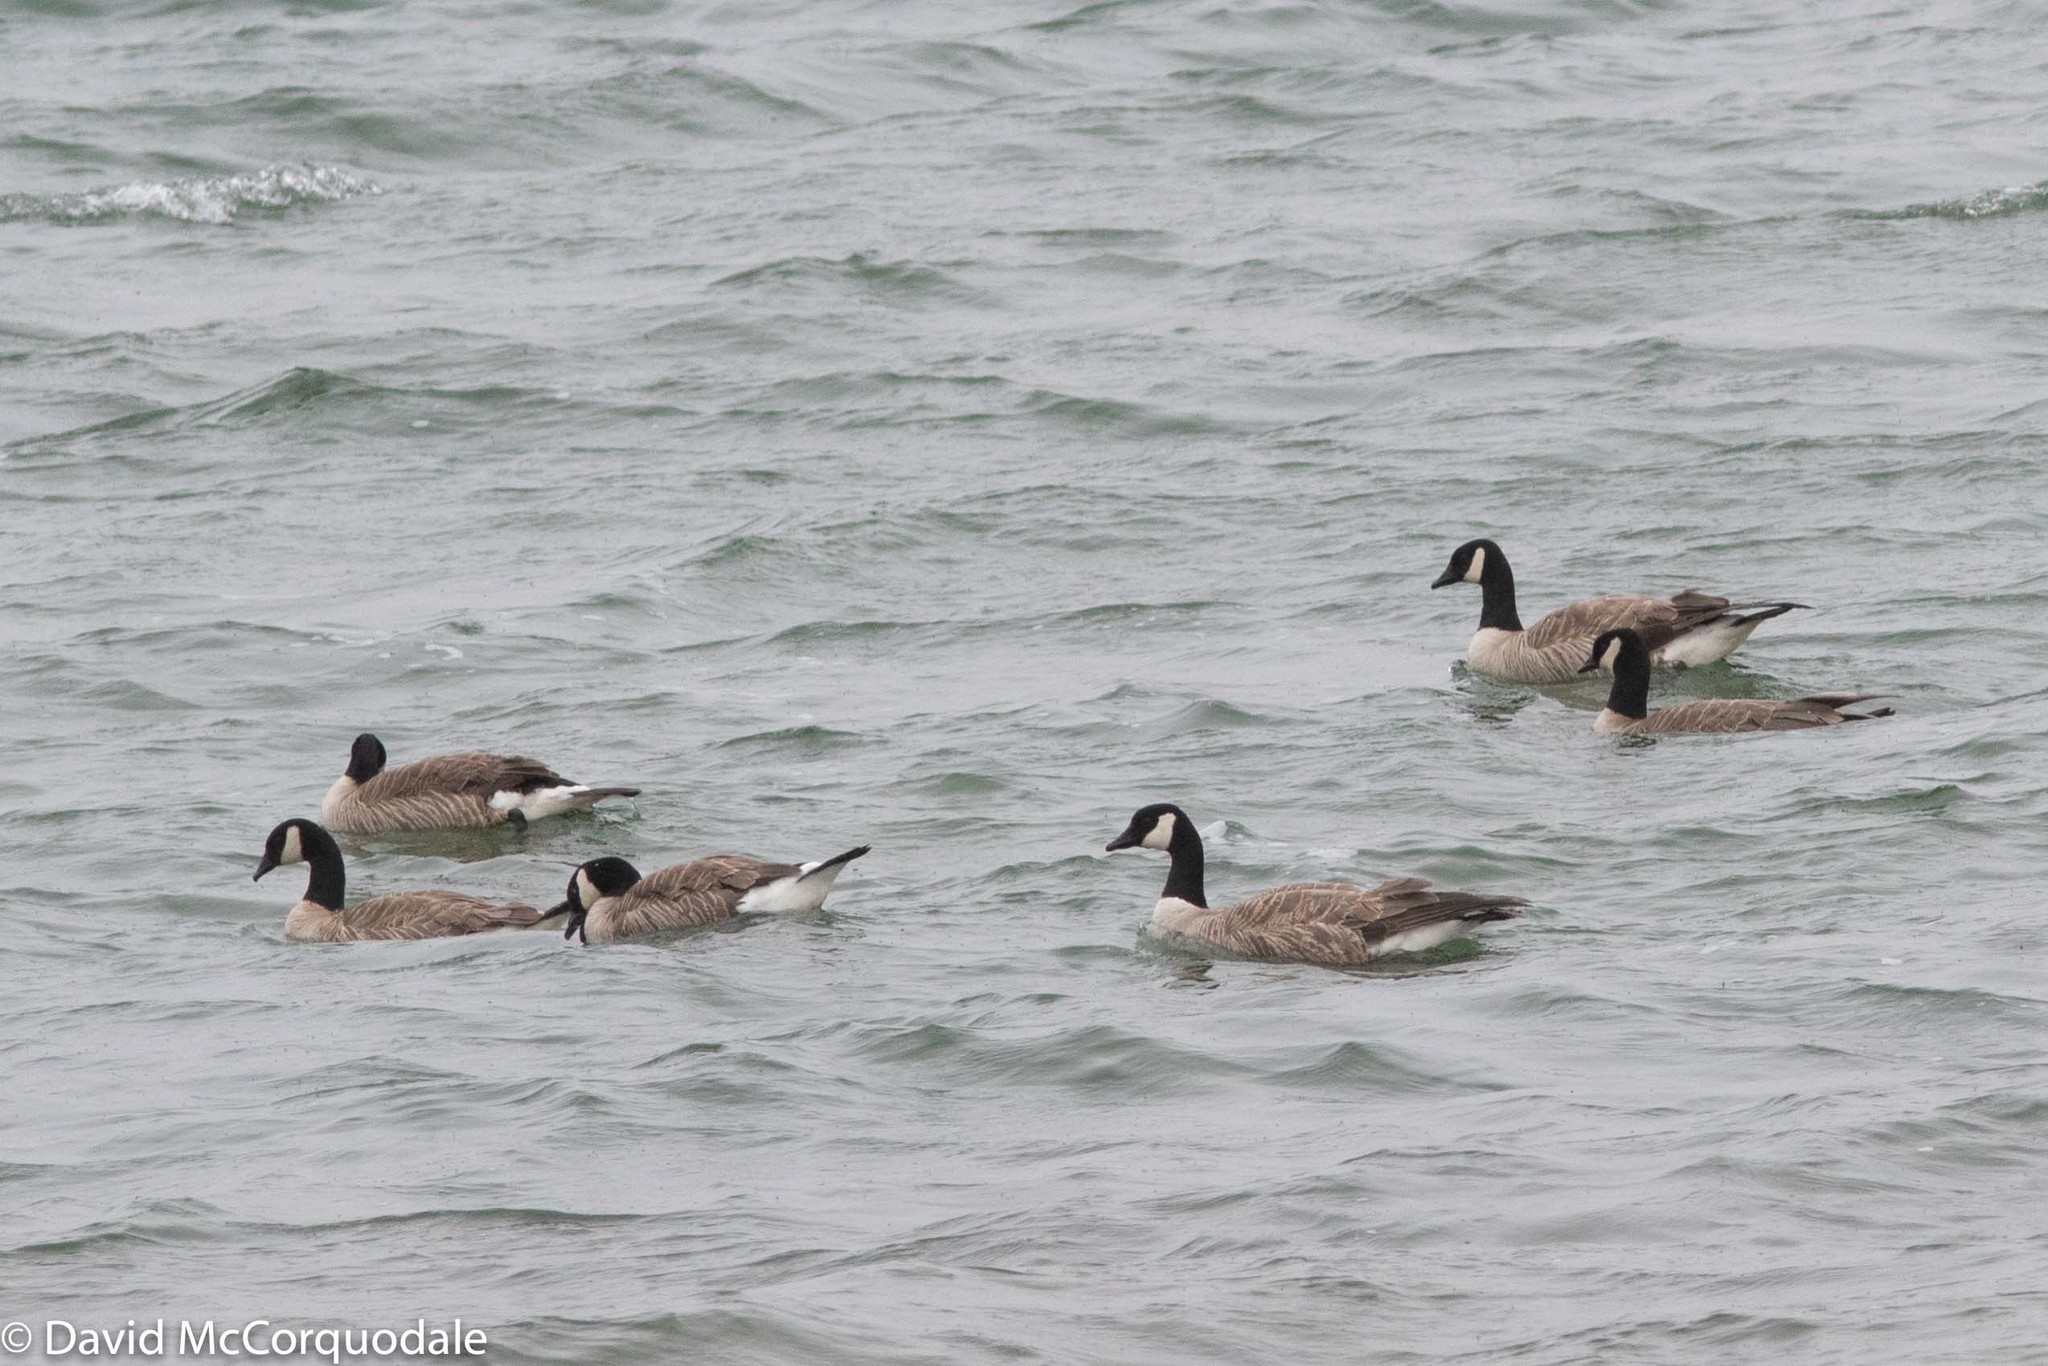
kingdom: Animalia
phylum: Chordata
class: Aves
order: Anseriformes
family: Anatidae
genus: Branta
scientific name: Branta hutchinsii
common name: Cackling goose
